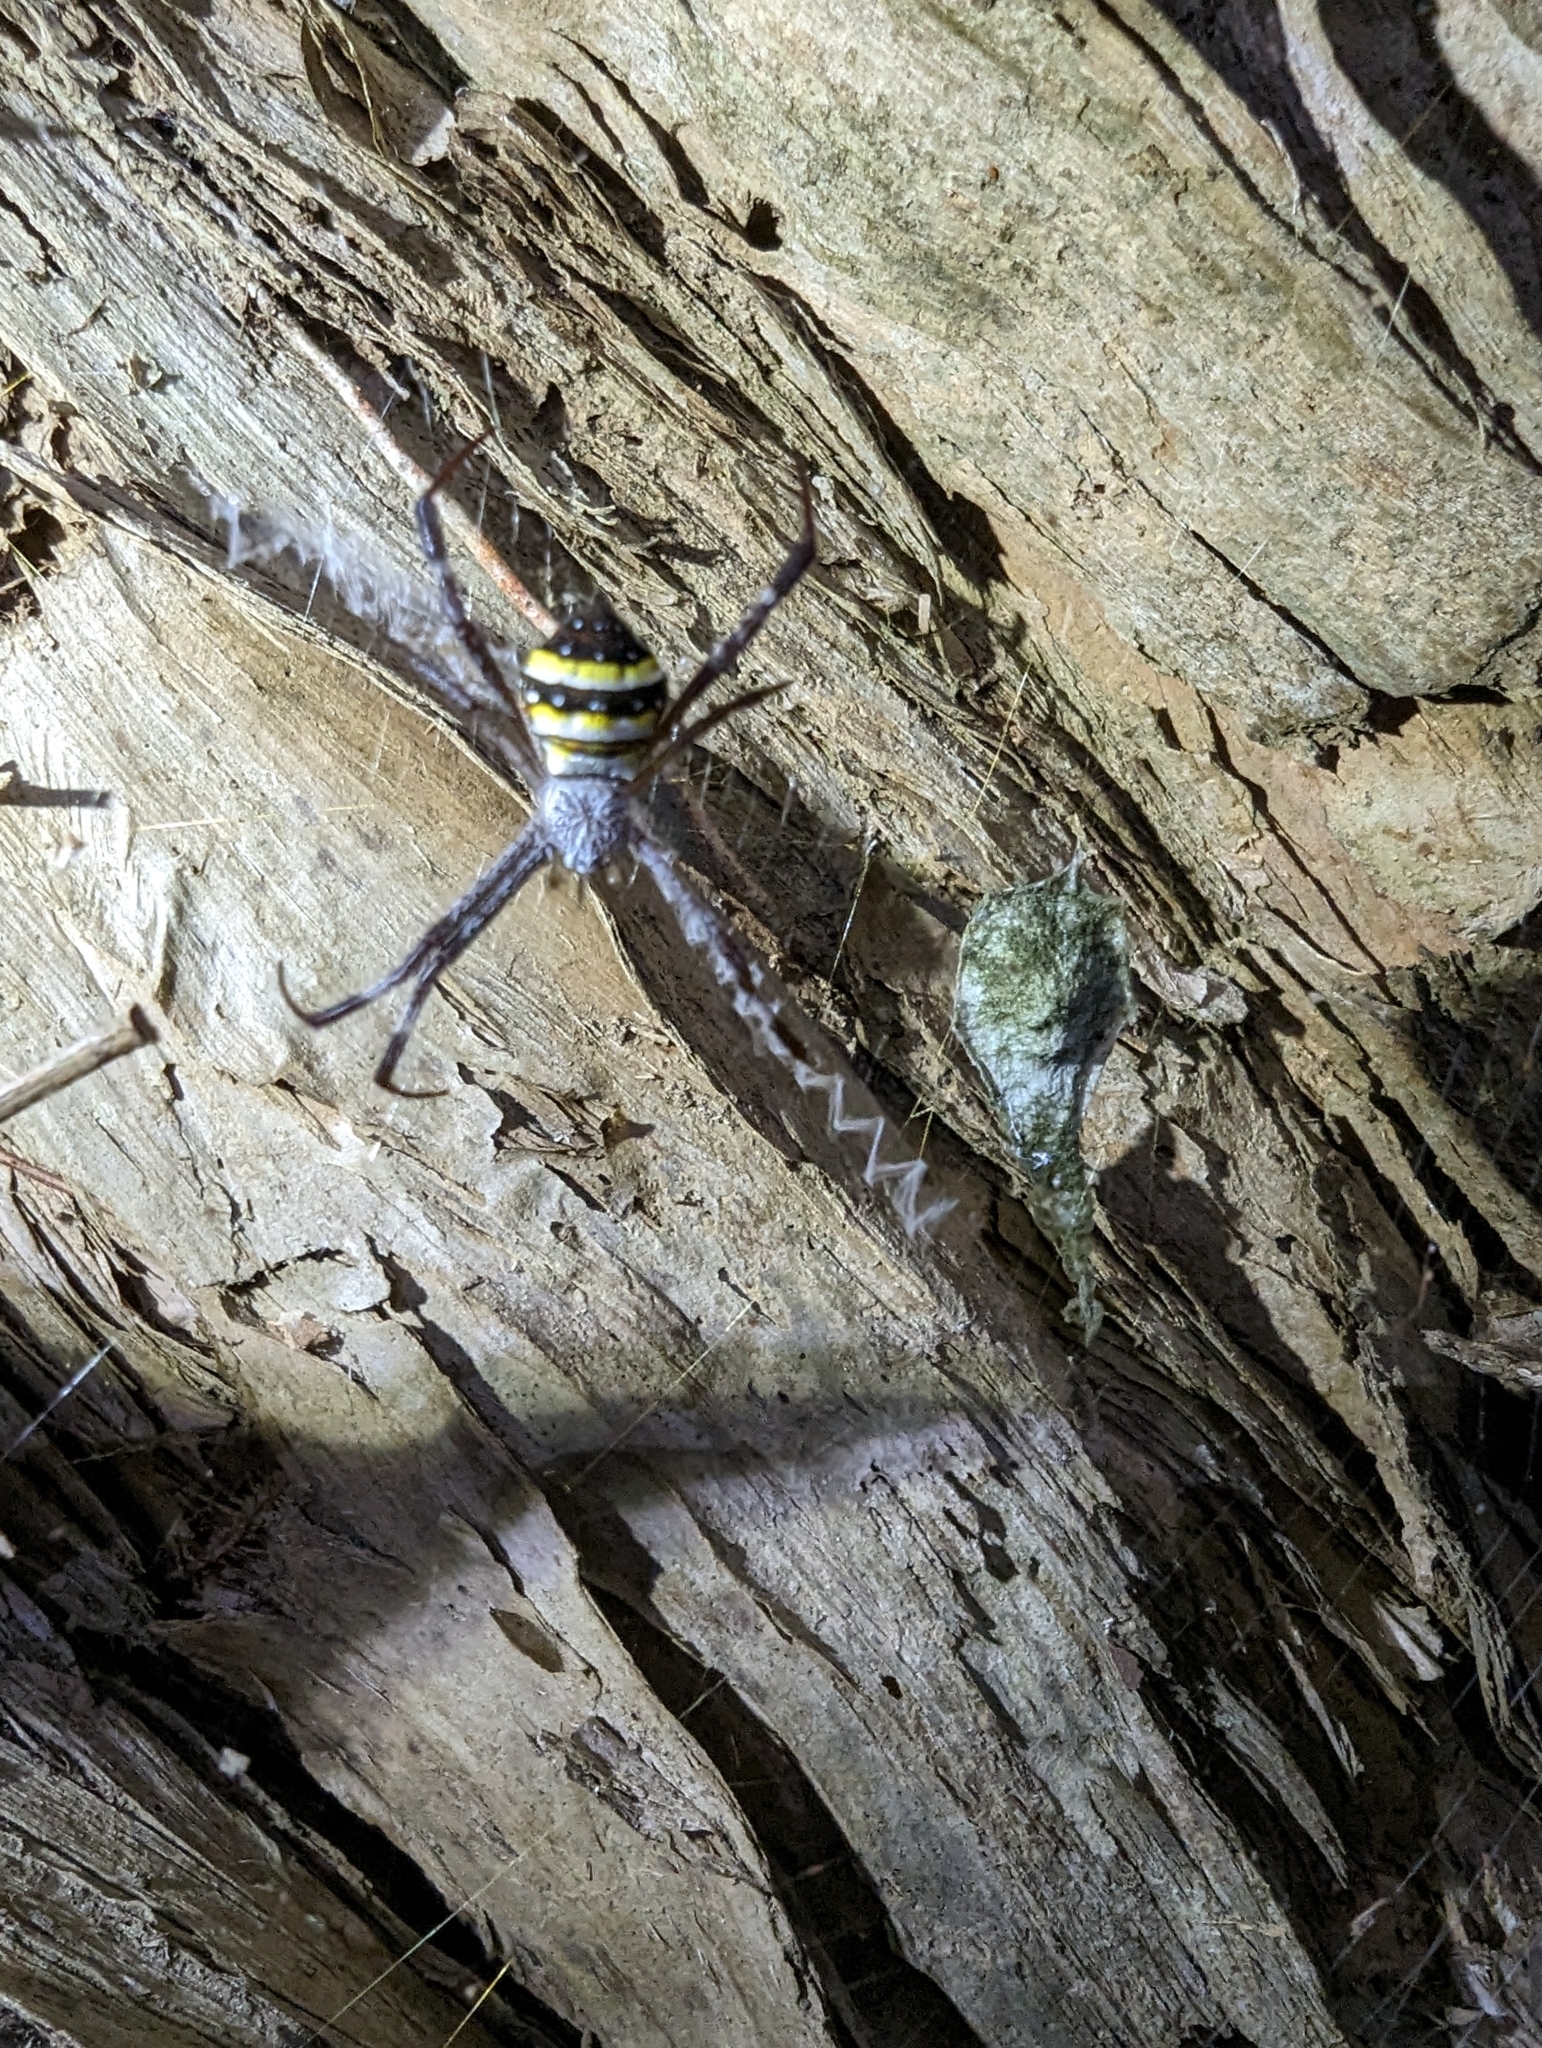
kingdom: Animalia
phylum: Arthropoda
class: Arachnida
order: Araneae
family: Araneidae
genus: Argiope
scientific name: Argiope aetherea
